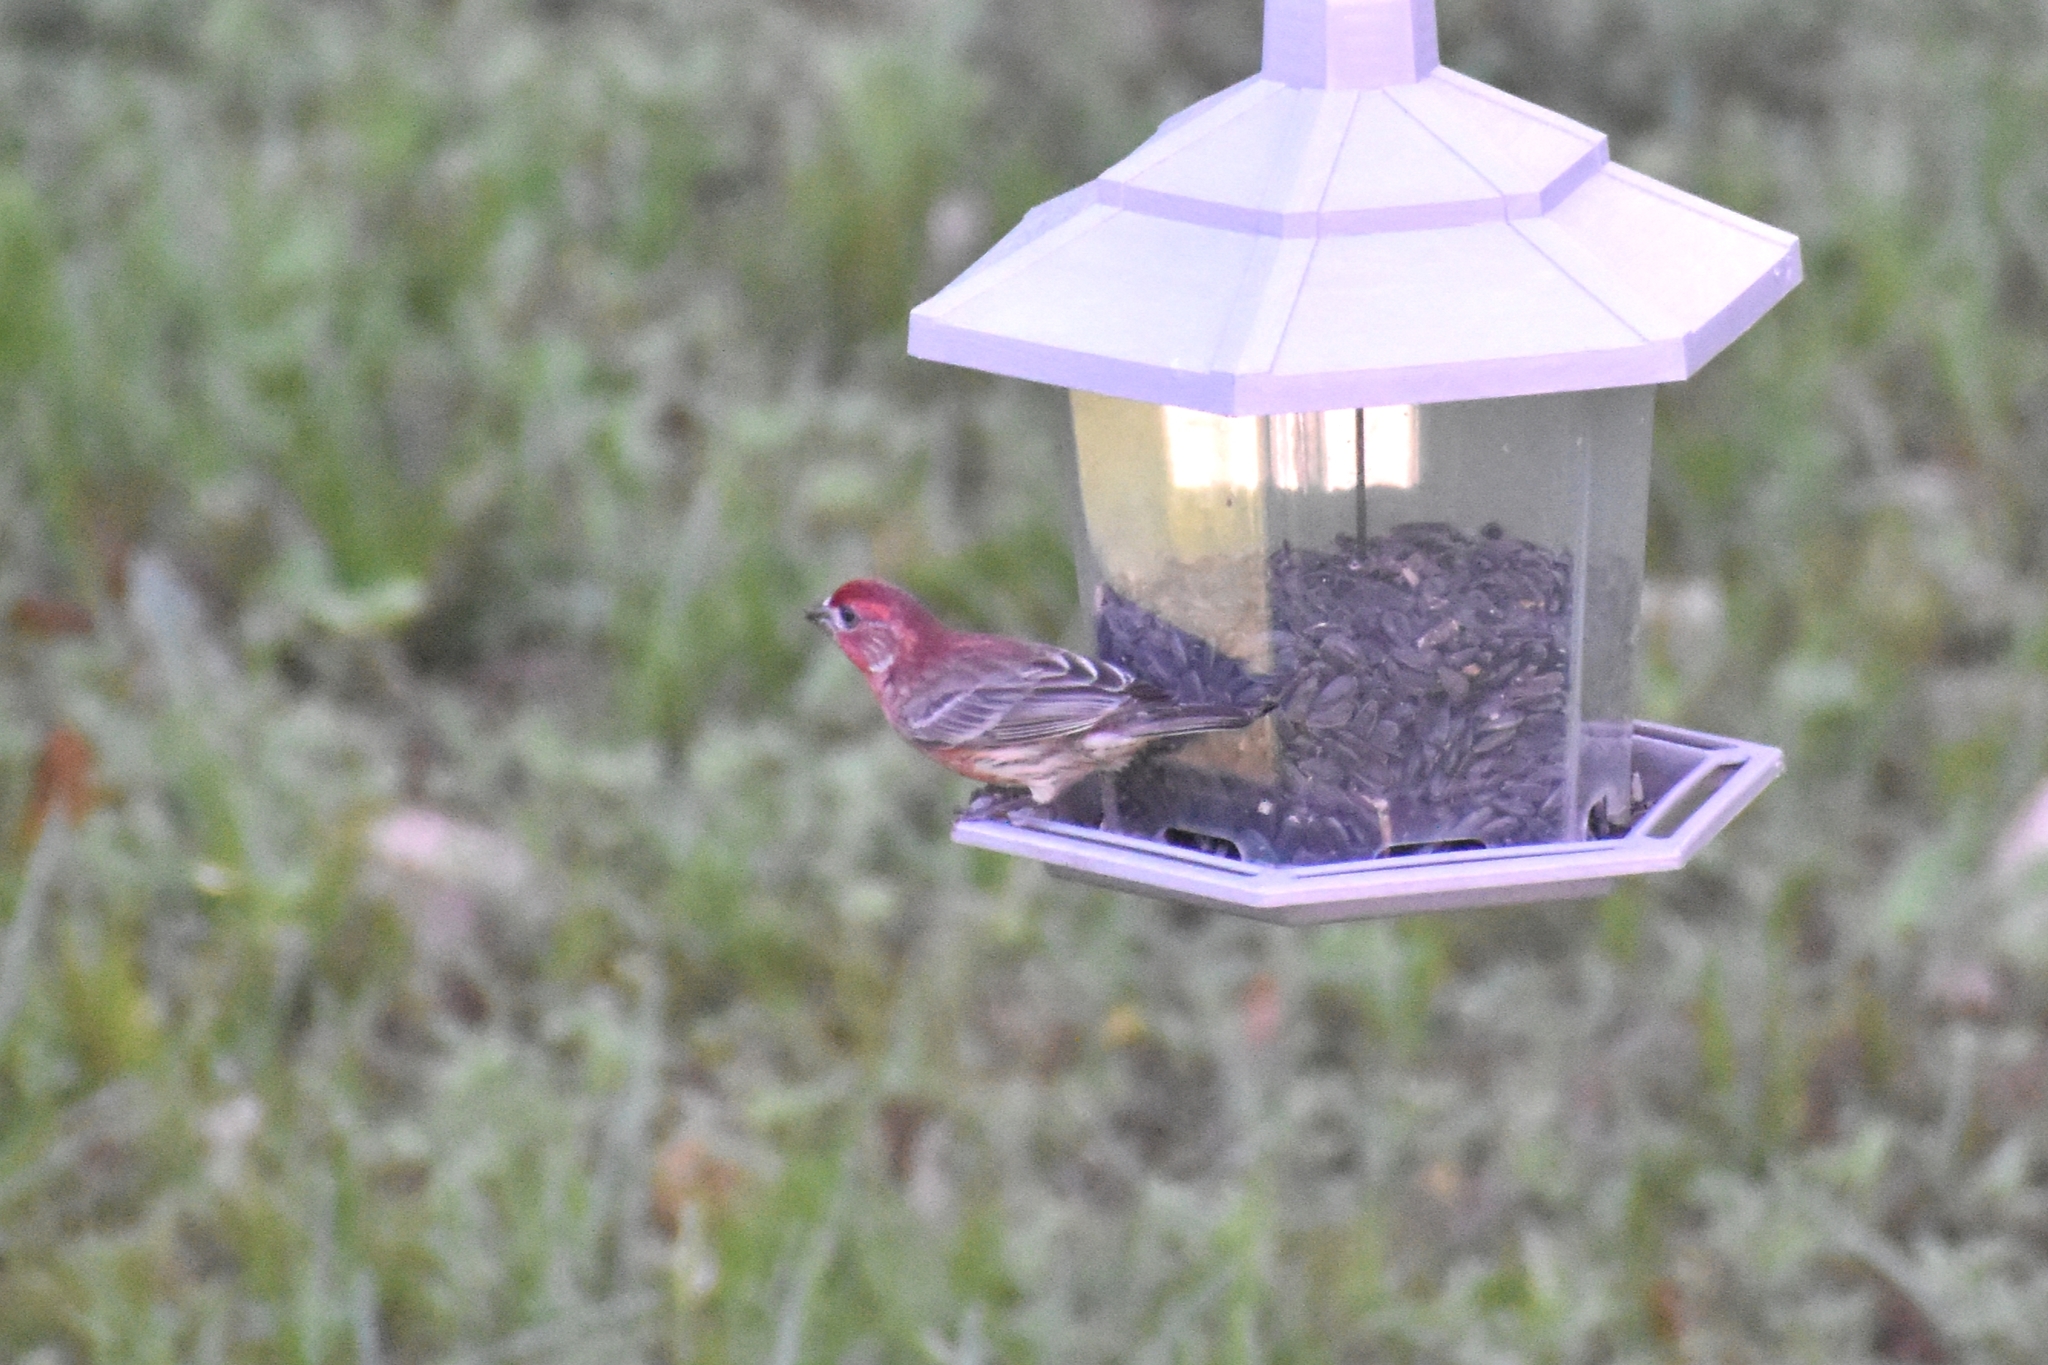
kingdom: Animalia
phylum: Chordata
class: Aves
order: Passeriformes
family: Fringillidae
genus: Haemorhous
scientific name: Haemorhous mexicanus
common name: House finch
